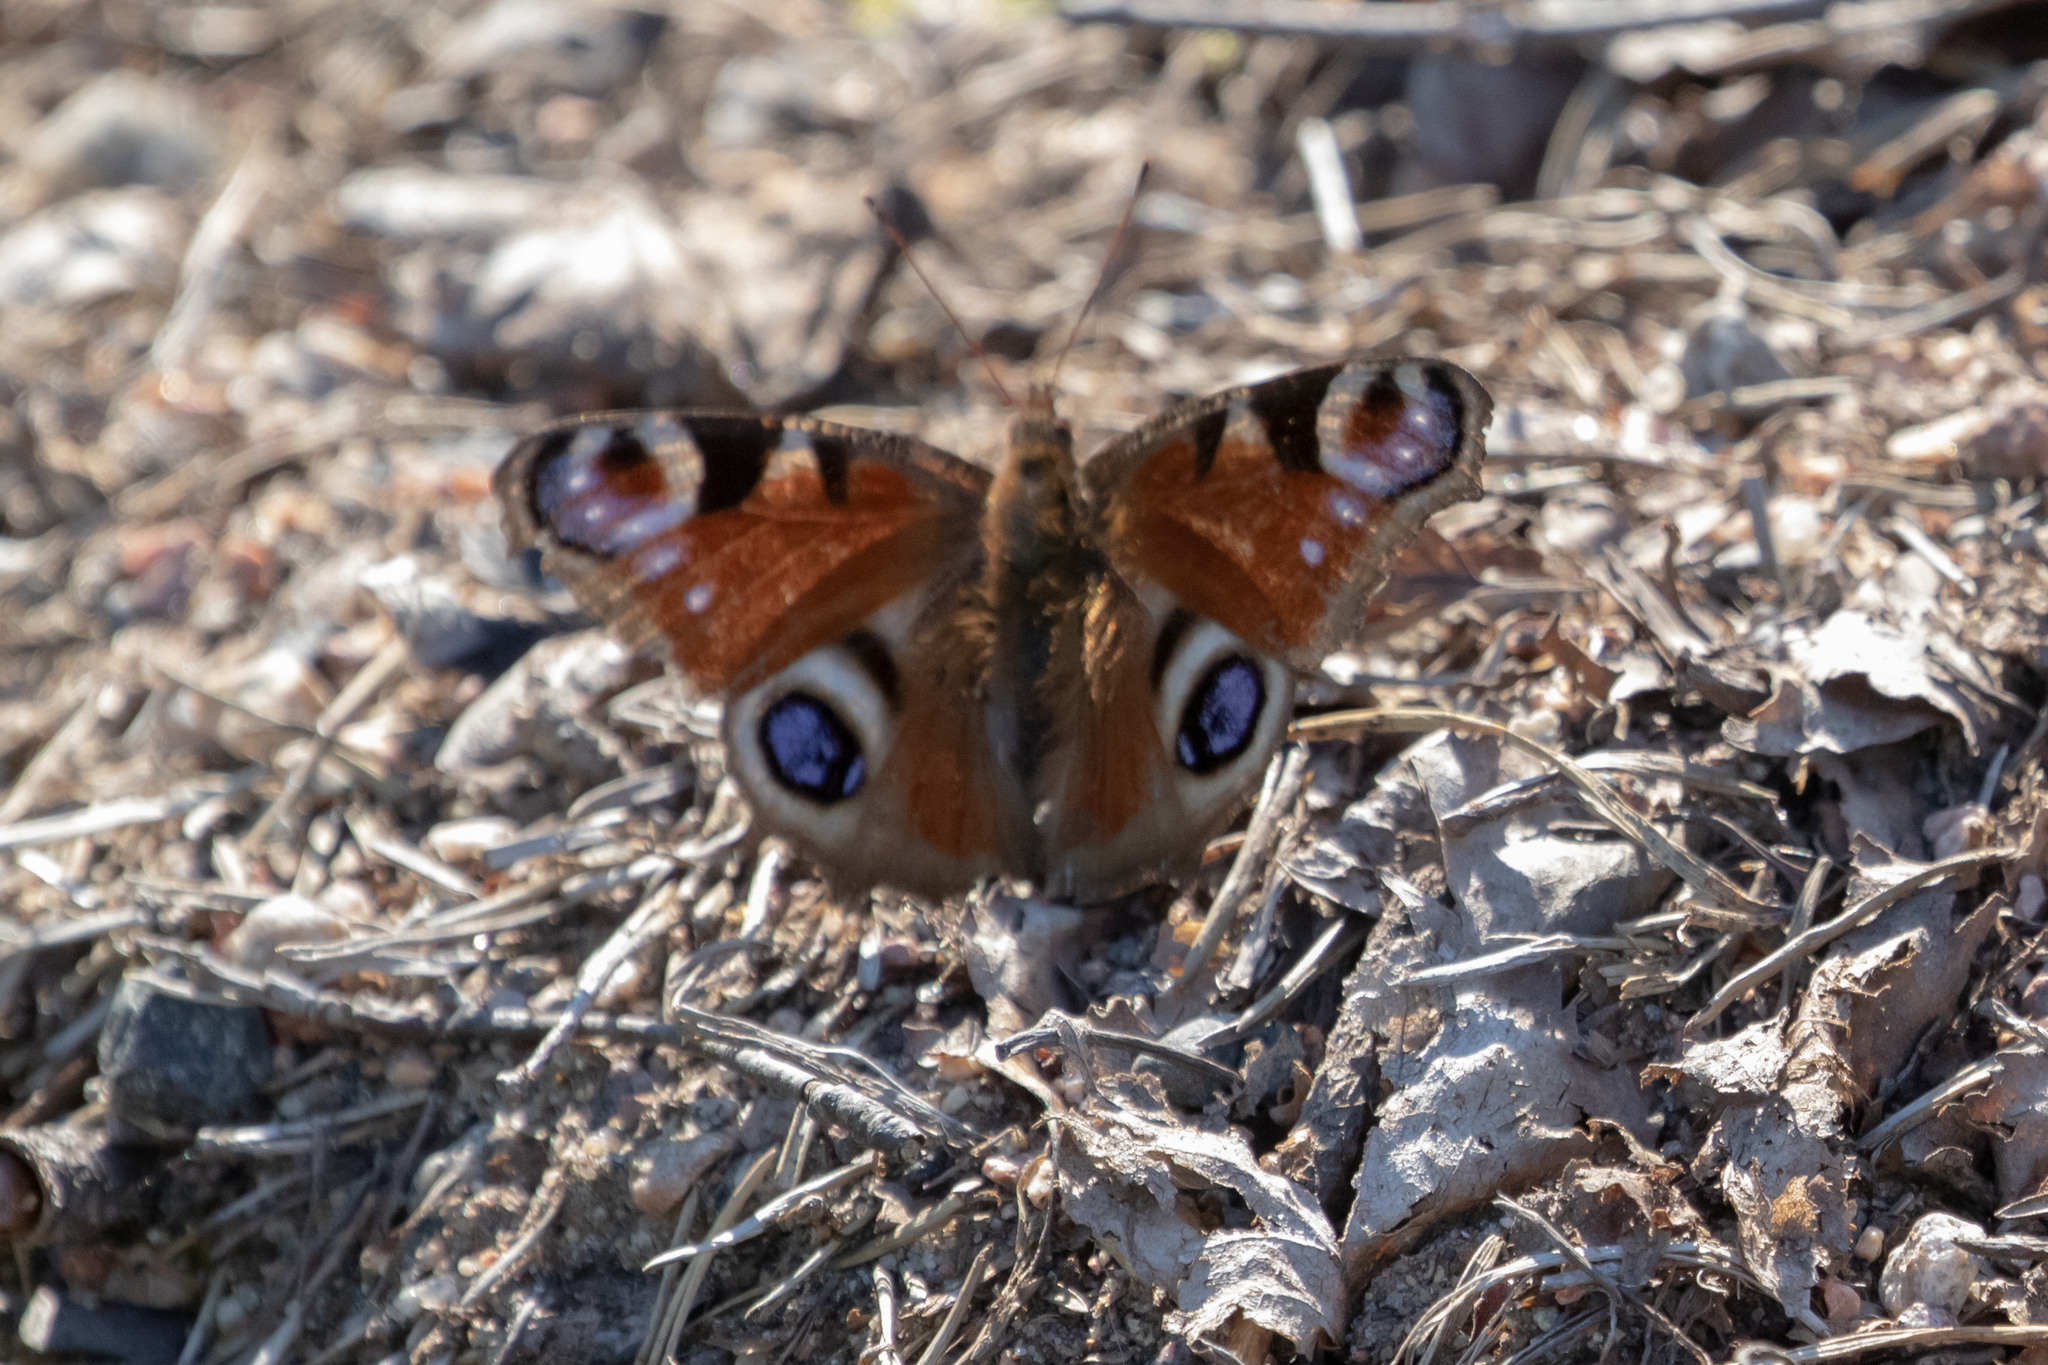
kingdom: Animalia
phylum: Arthropoda
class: Insecta
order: Lepidoptera
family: Nymphalidae
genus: Aglais
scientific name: Aglais io
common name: Peacock
